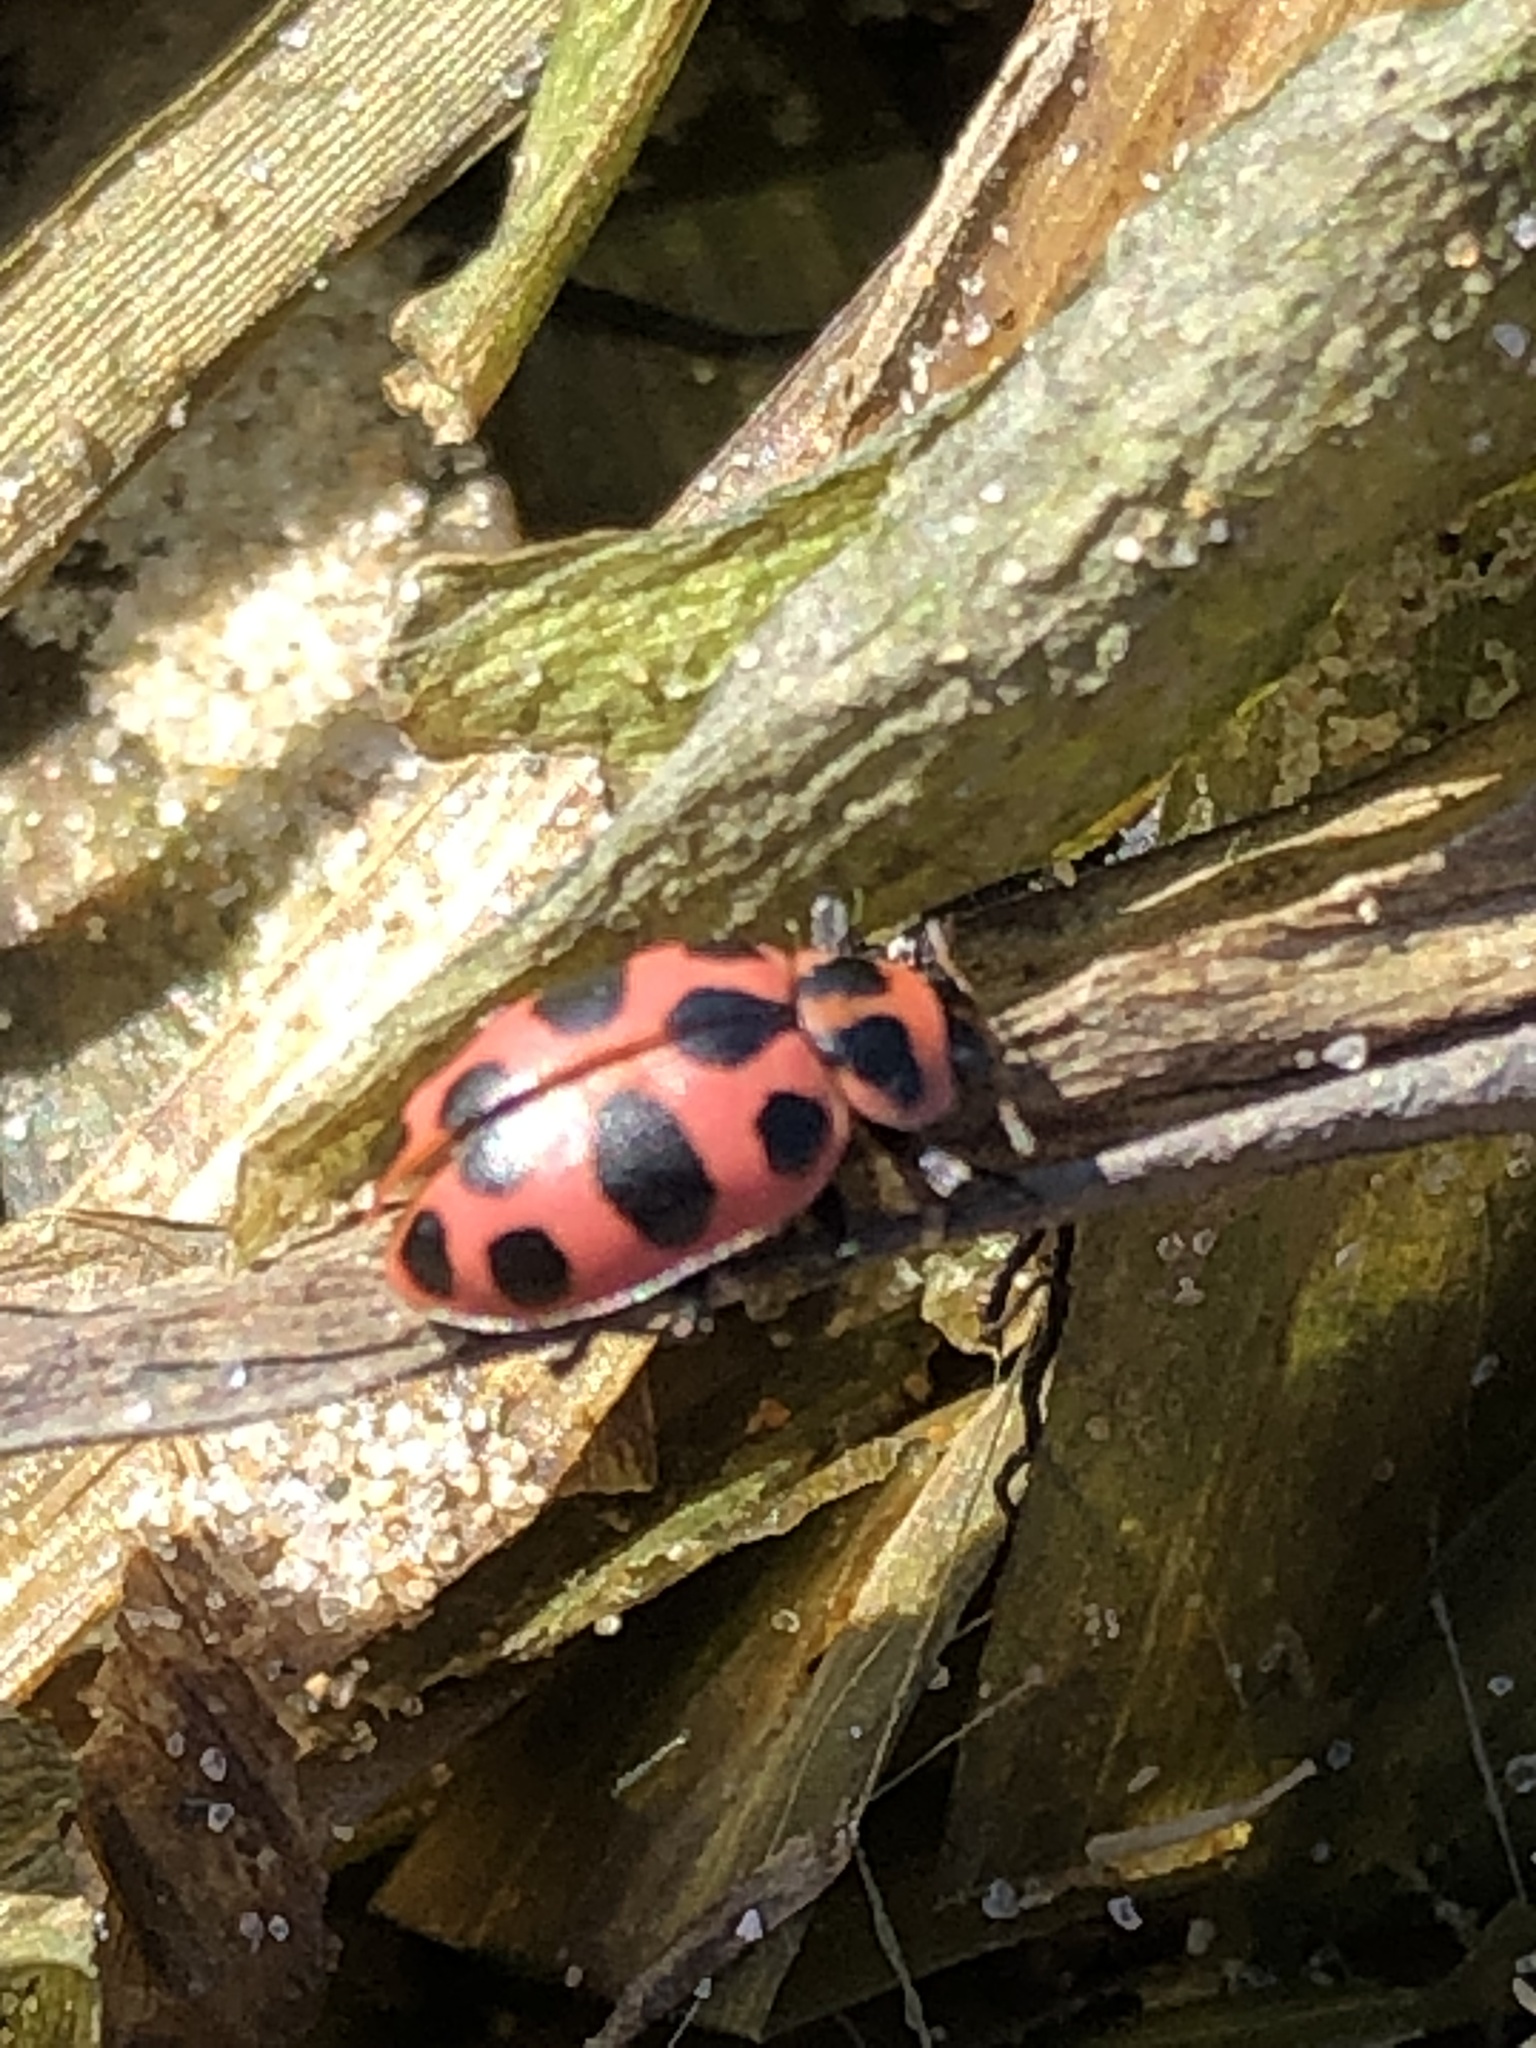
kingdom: Animalia
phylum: Arthropoda
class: Insecta
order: Coleoptera
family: Coccinellidae
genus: Coleomegilla
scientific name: Coleomegilla maculata
